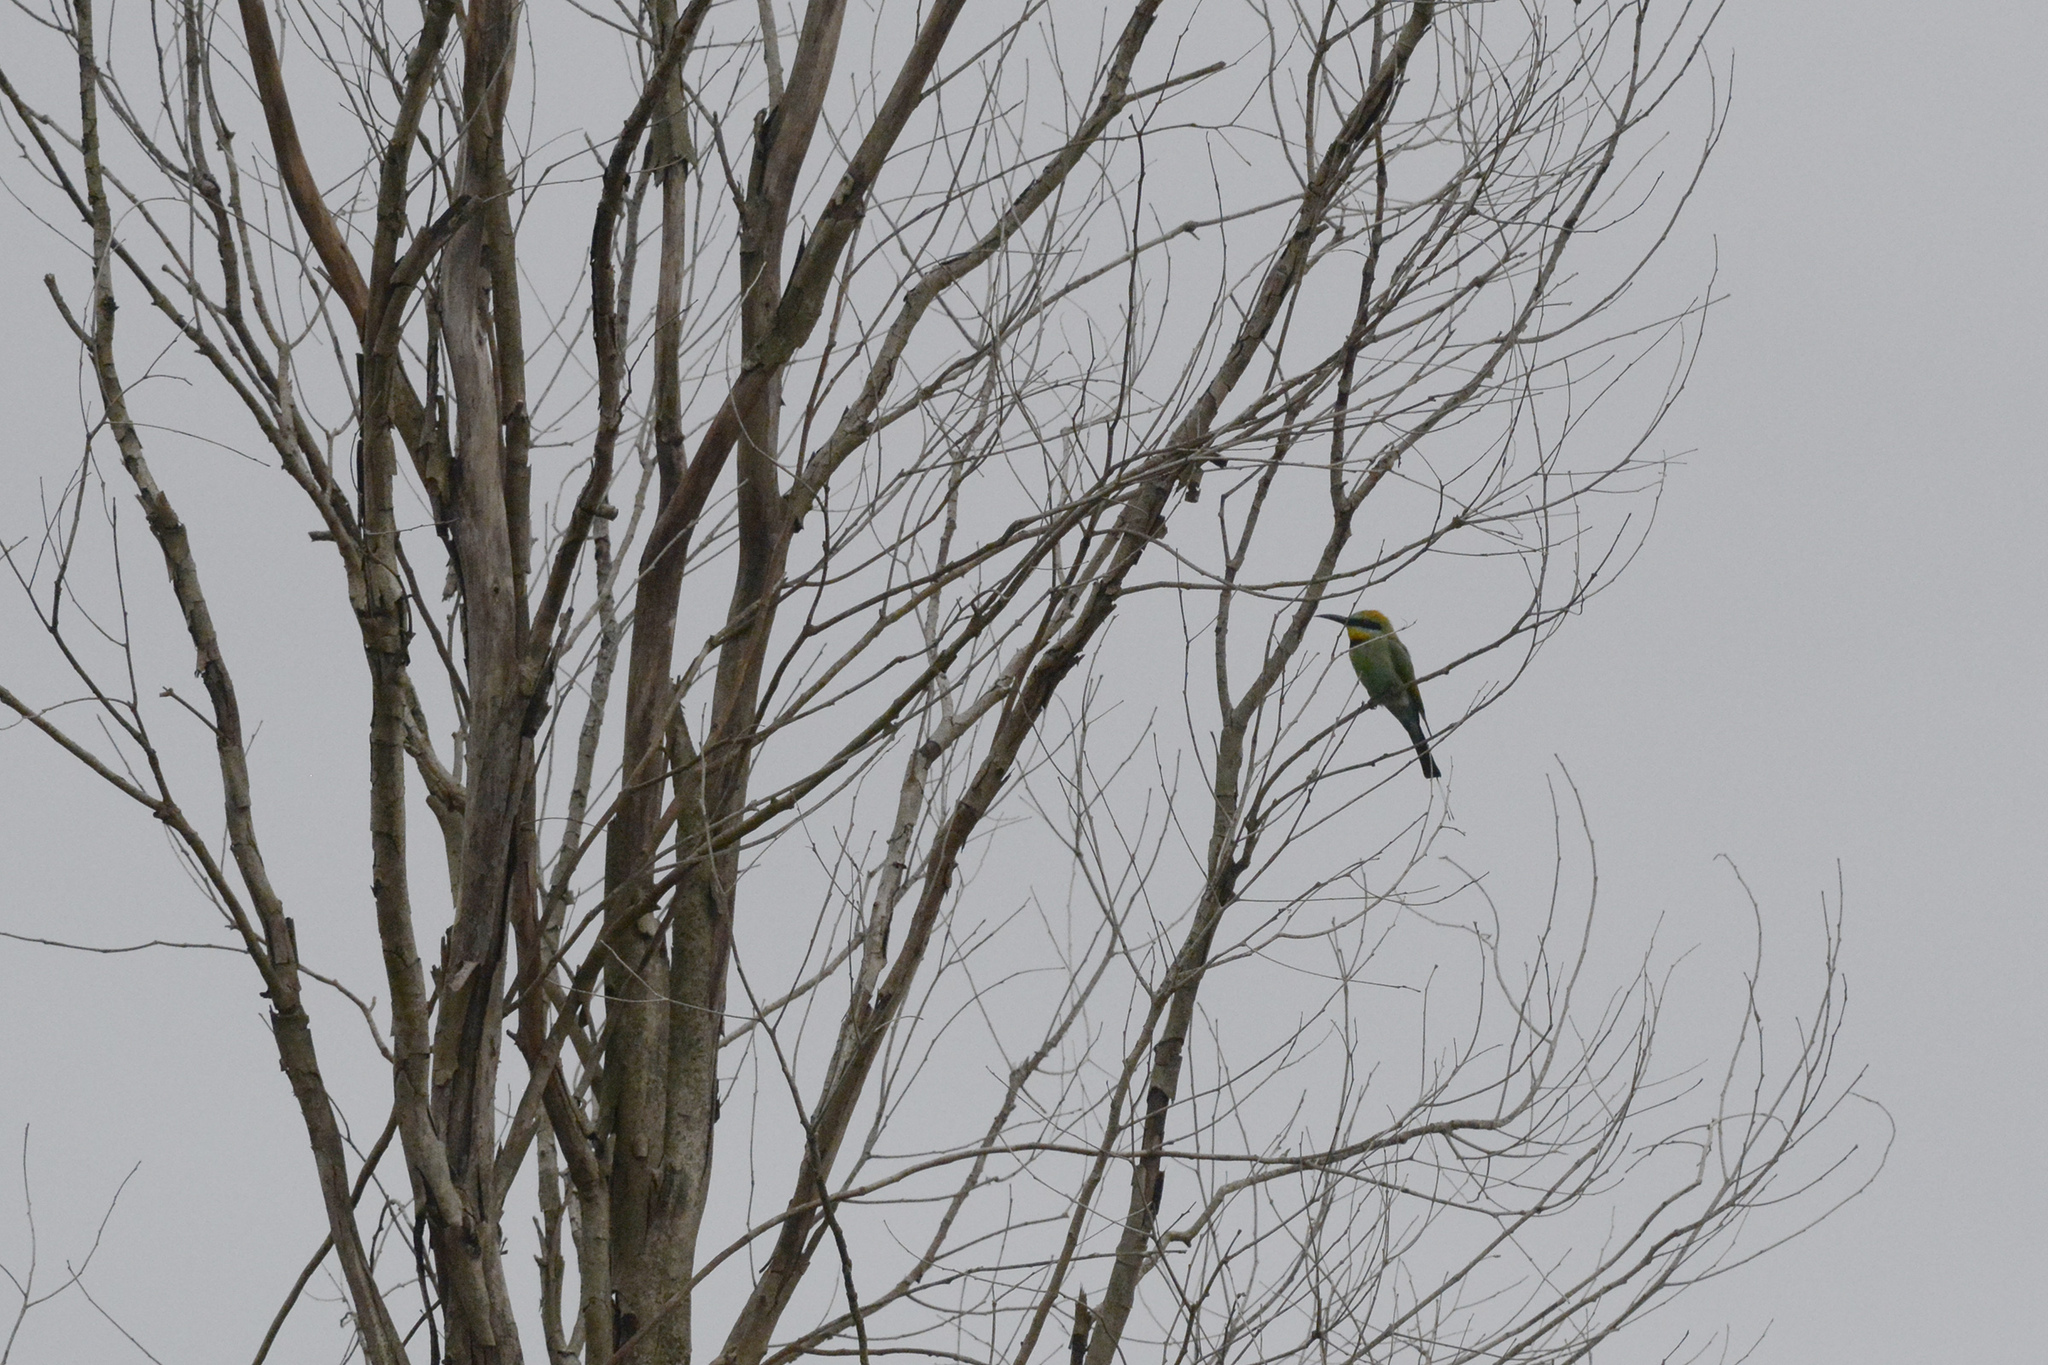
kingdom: Animalia
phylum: Chordata
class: Aves
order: Coraciiformes
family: Meropidae
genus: Merops
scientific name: Merops ornatus
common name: Rainbow bee-eater
